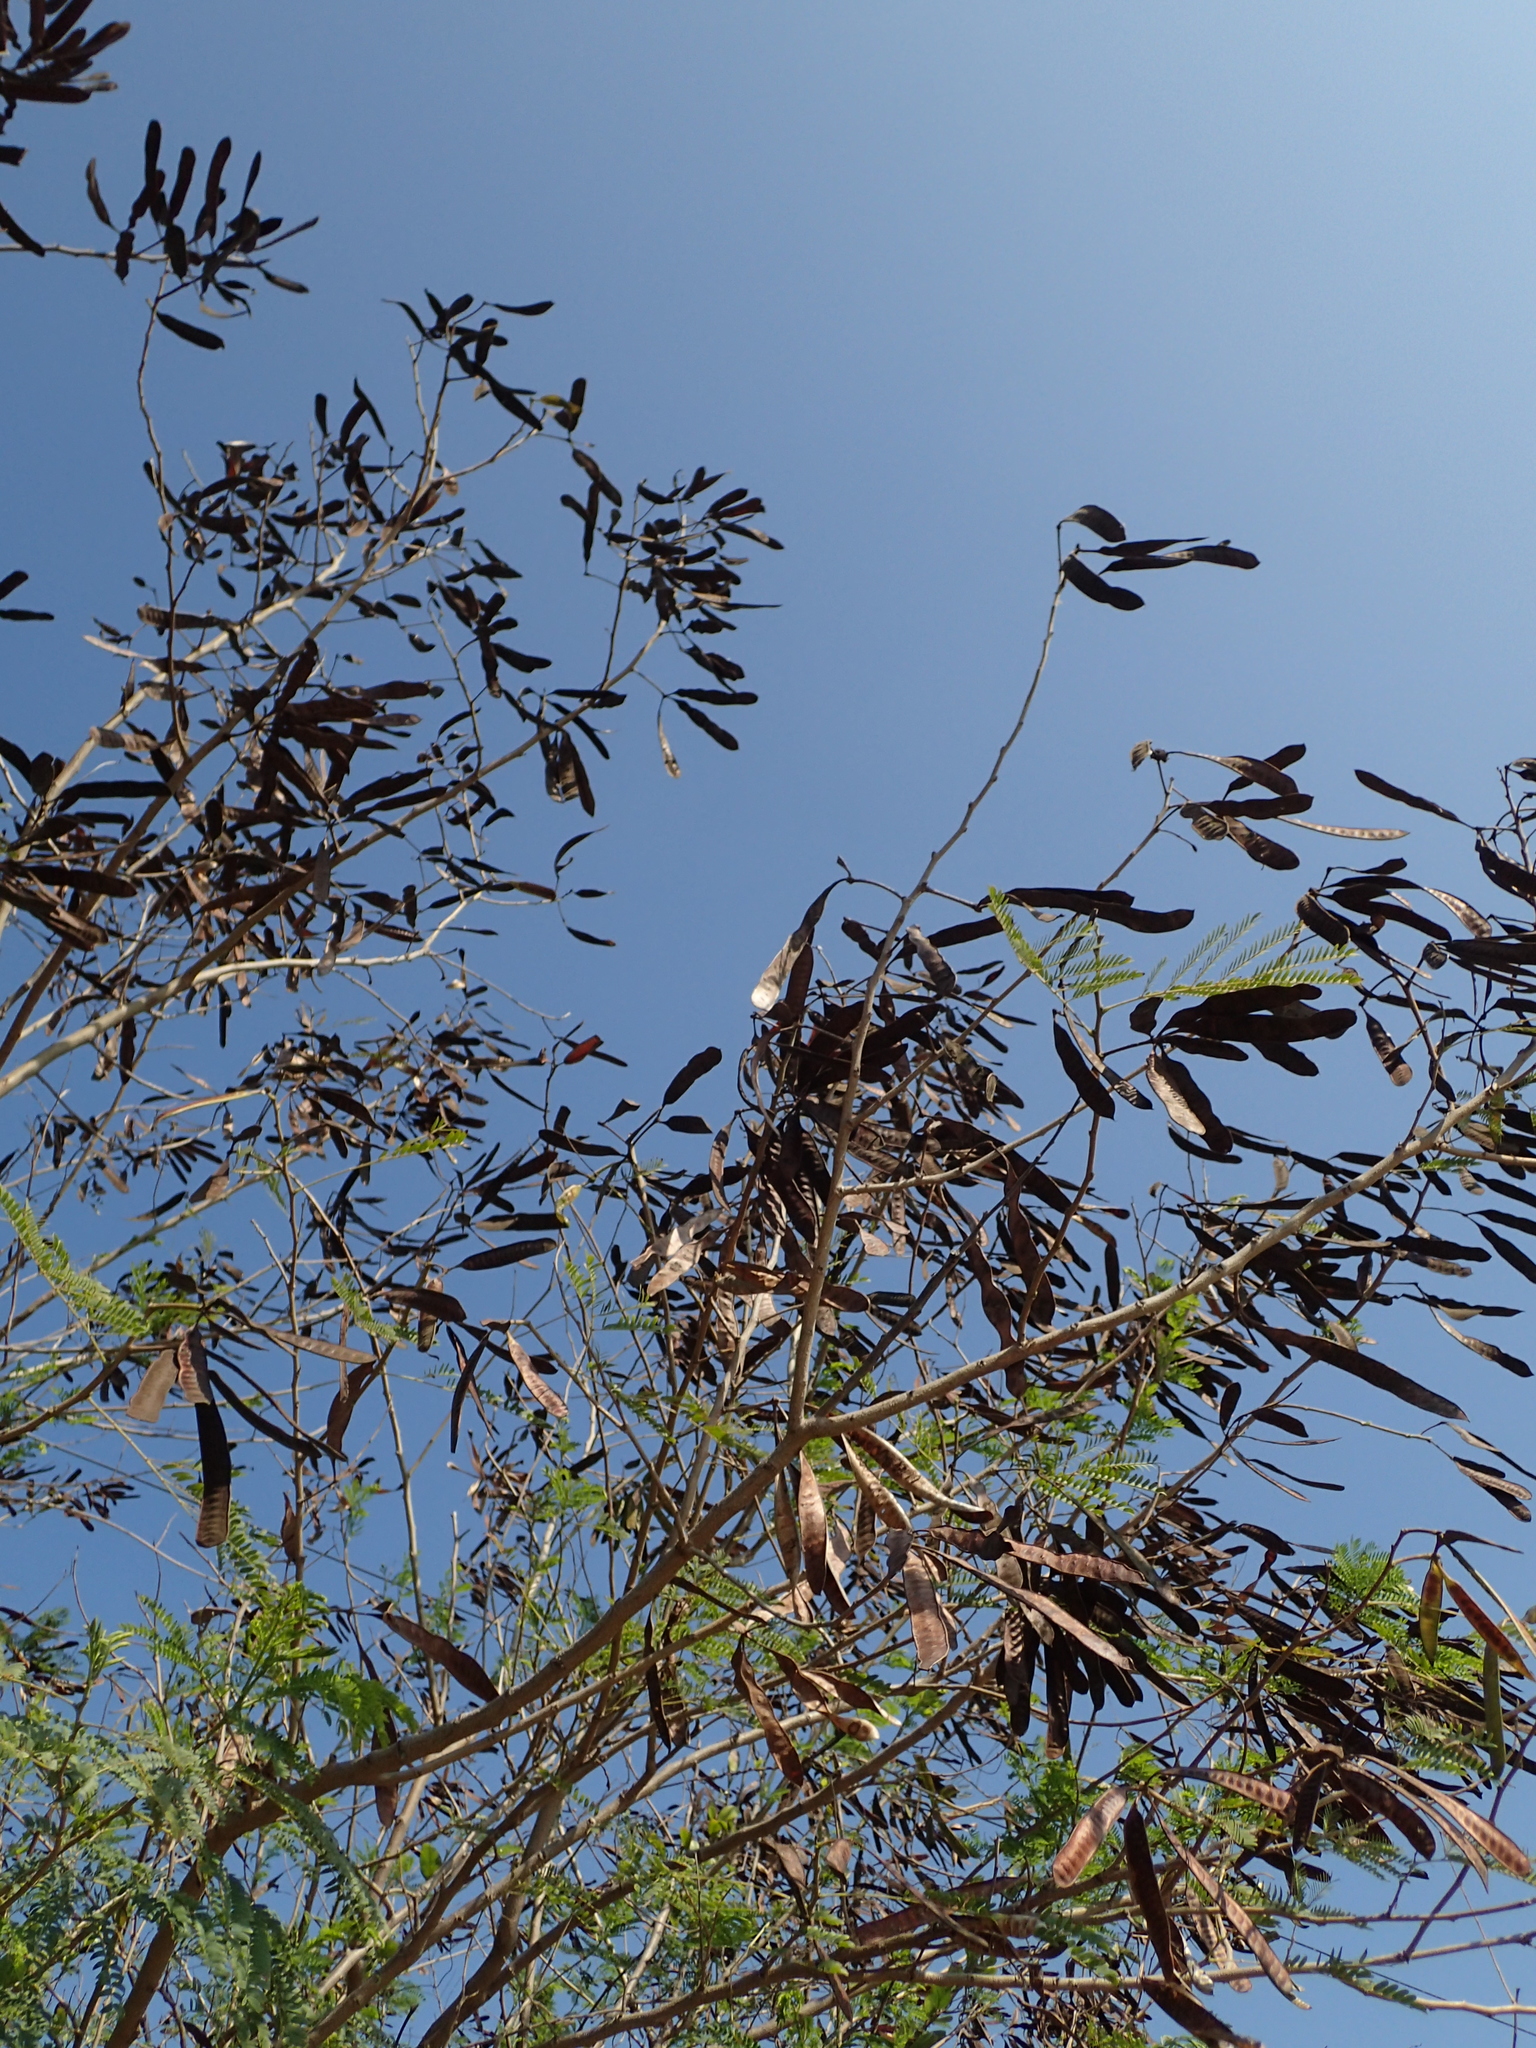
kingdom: Plantae
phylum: Tracheophyta
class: Magnoliopsida
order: Fabales
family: Fabaceae
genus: Leucaena
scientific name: Leucaena leucocephala
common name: White leadtree
